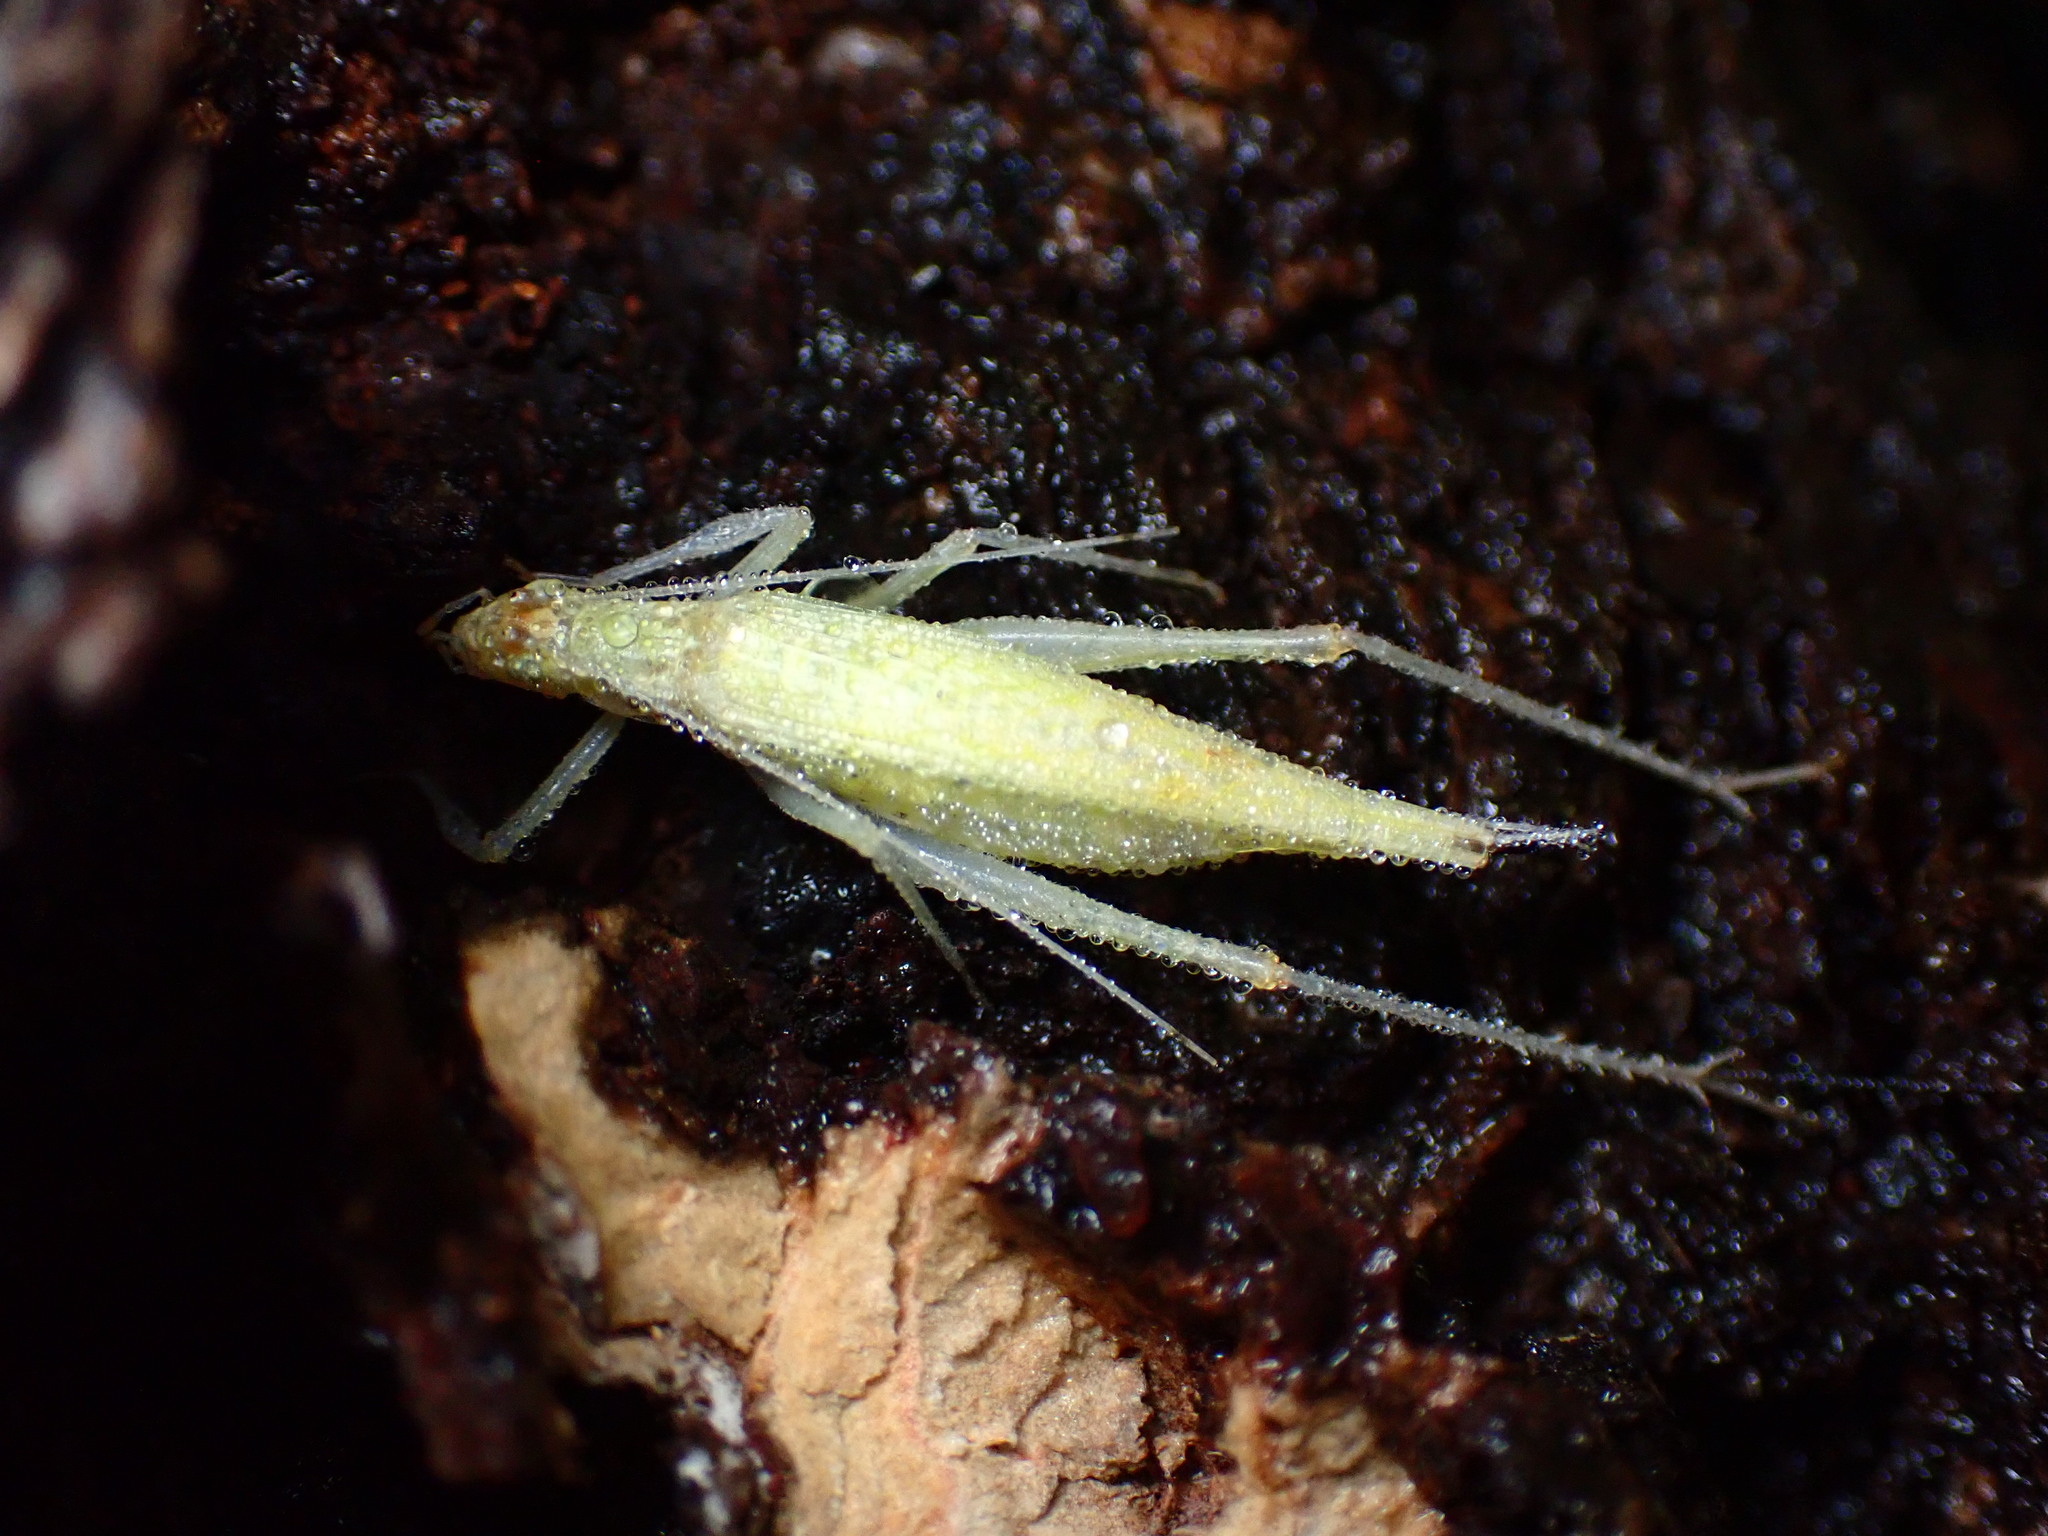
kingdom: Animalia
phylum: Arthropoda
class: Insecta
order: Orthoptera
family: Gryllidae
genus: Oecanthus
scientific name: Oecanthus rileyi
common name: Riley's tree cricket
